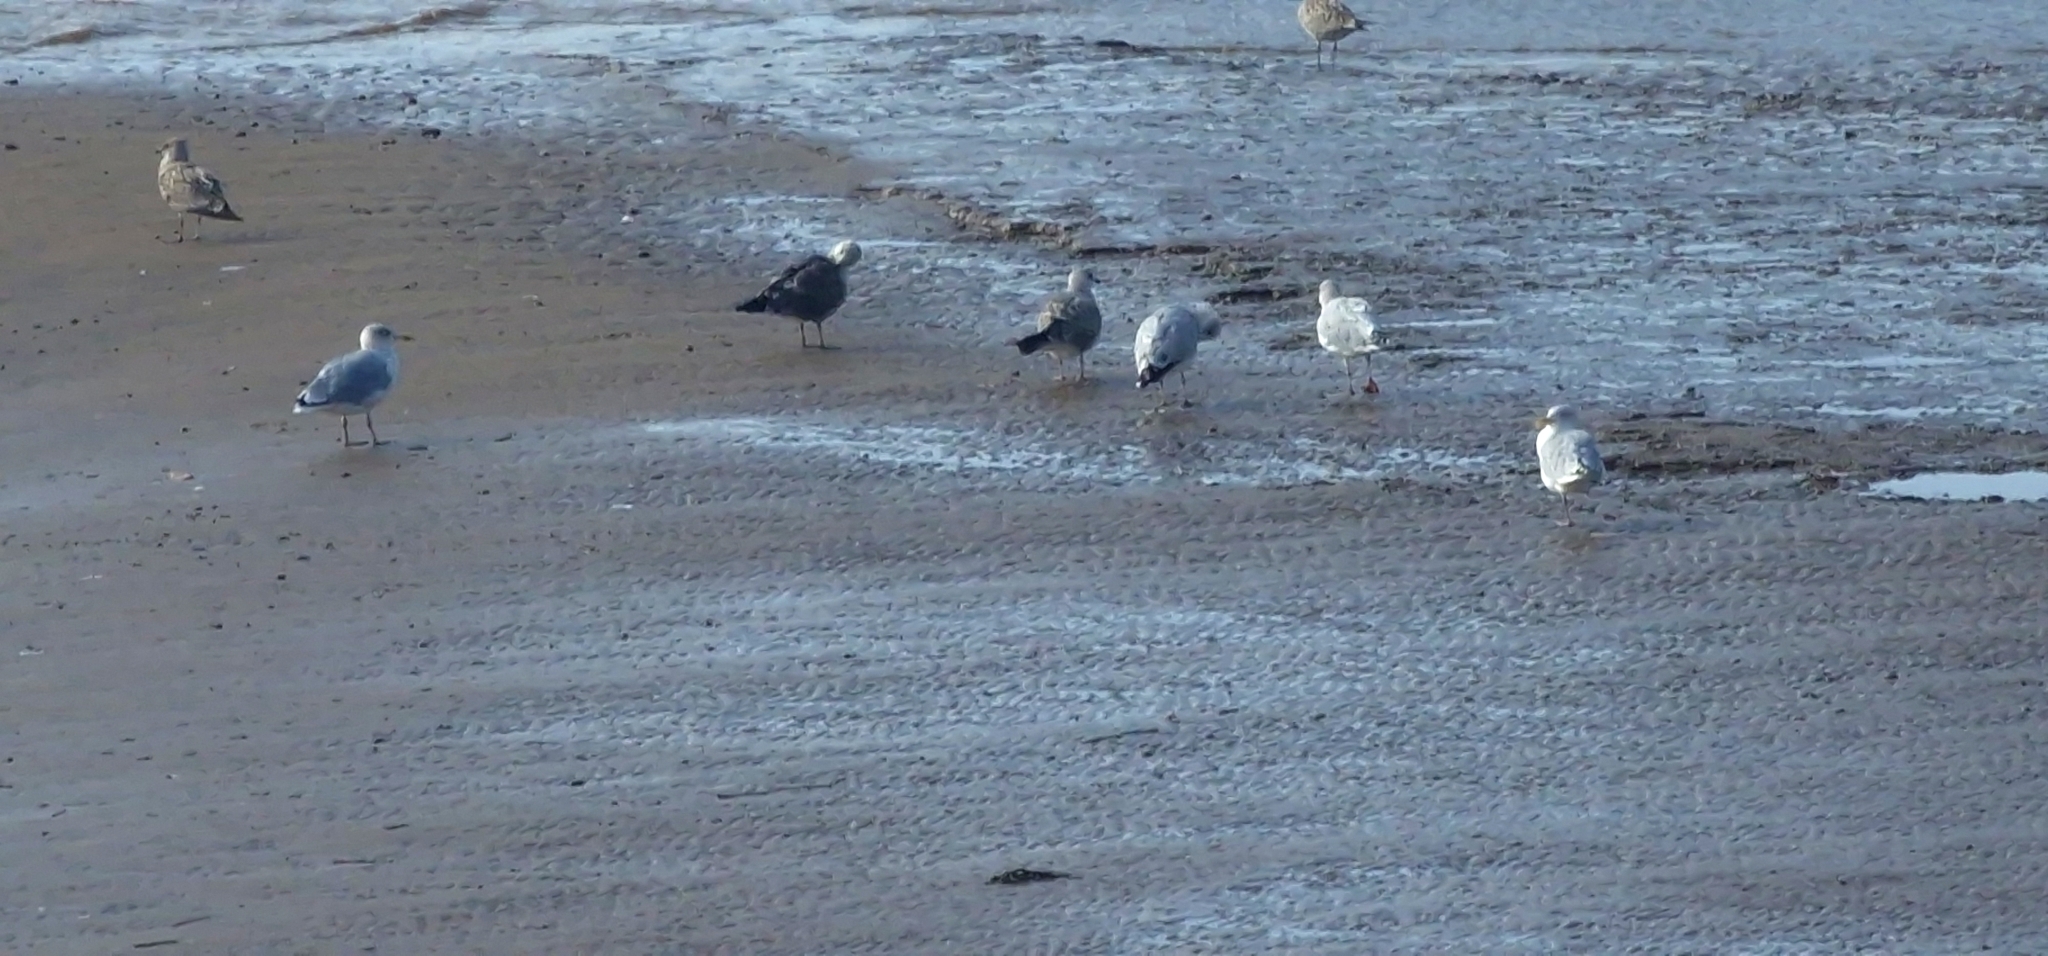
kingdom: Animalia
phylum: Chordata
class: Aves
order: Charadriiformes
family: Laridae
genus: Larus
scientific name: Larus marinus
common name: Great black-backed gull
